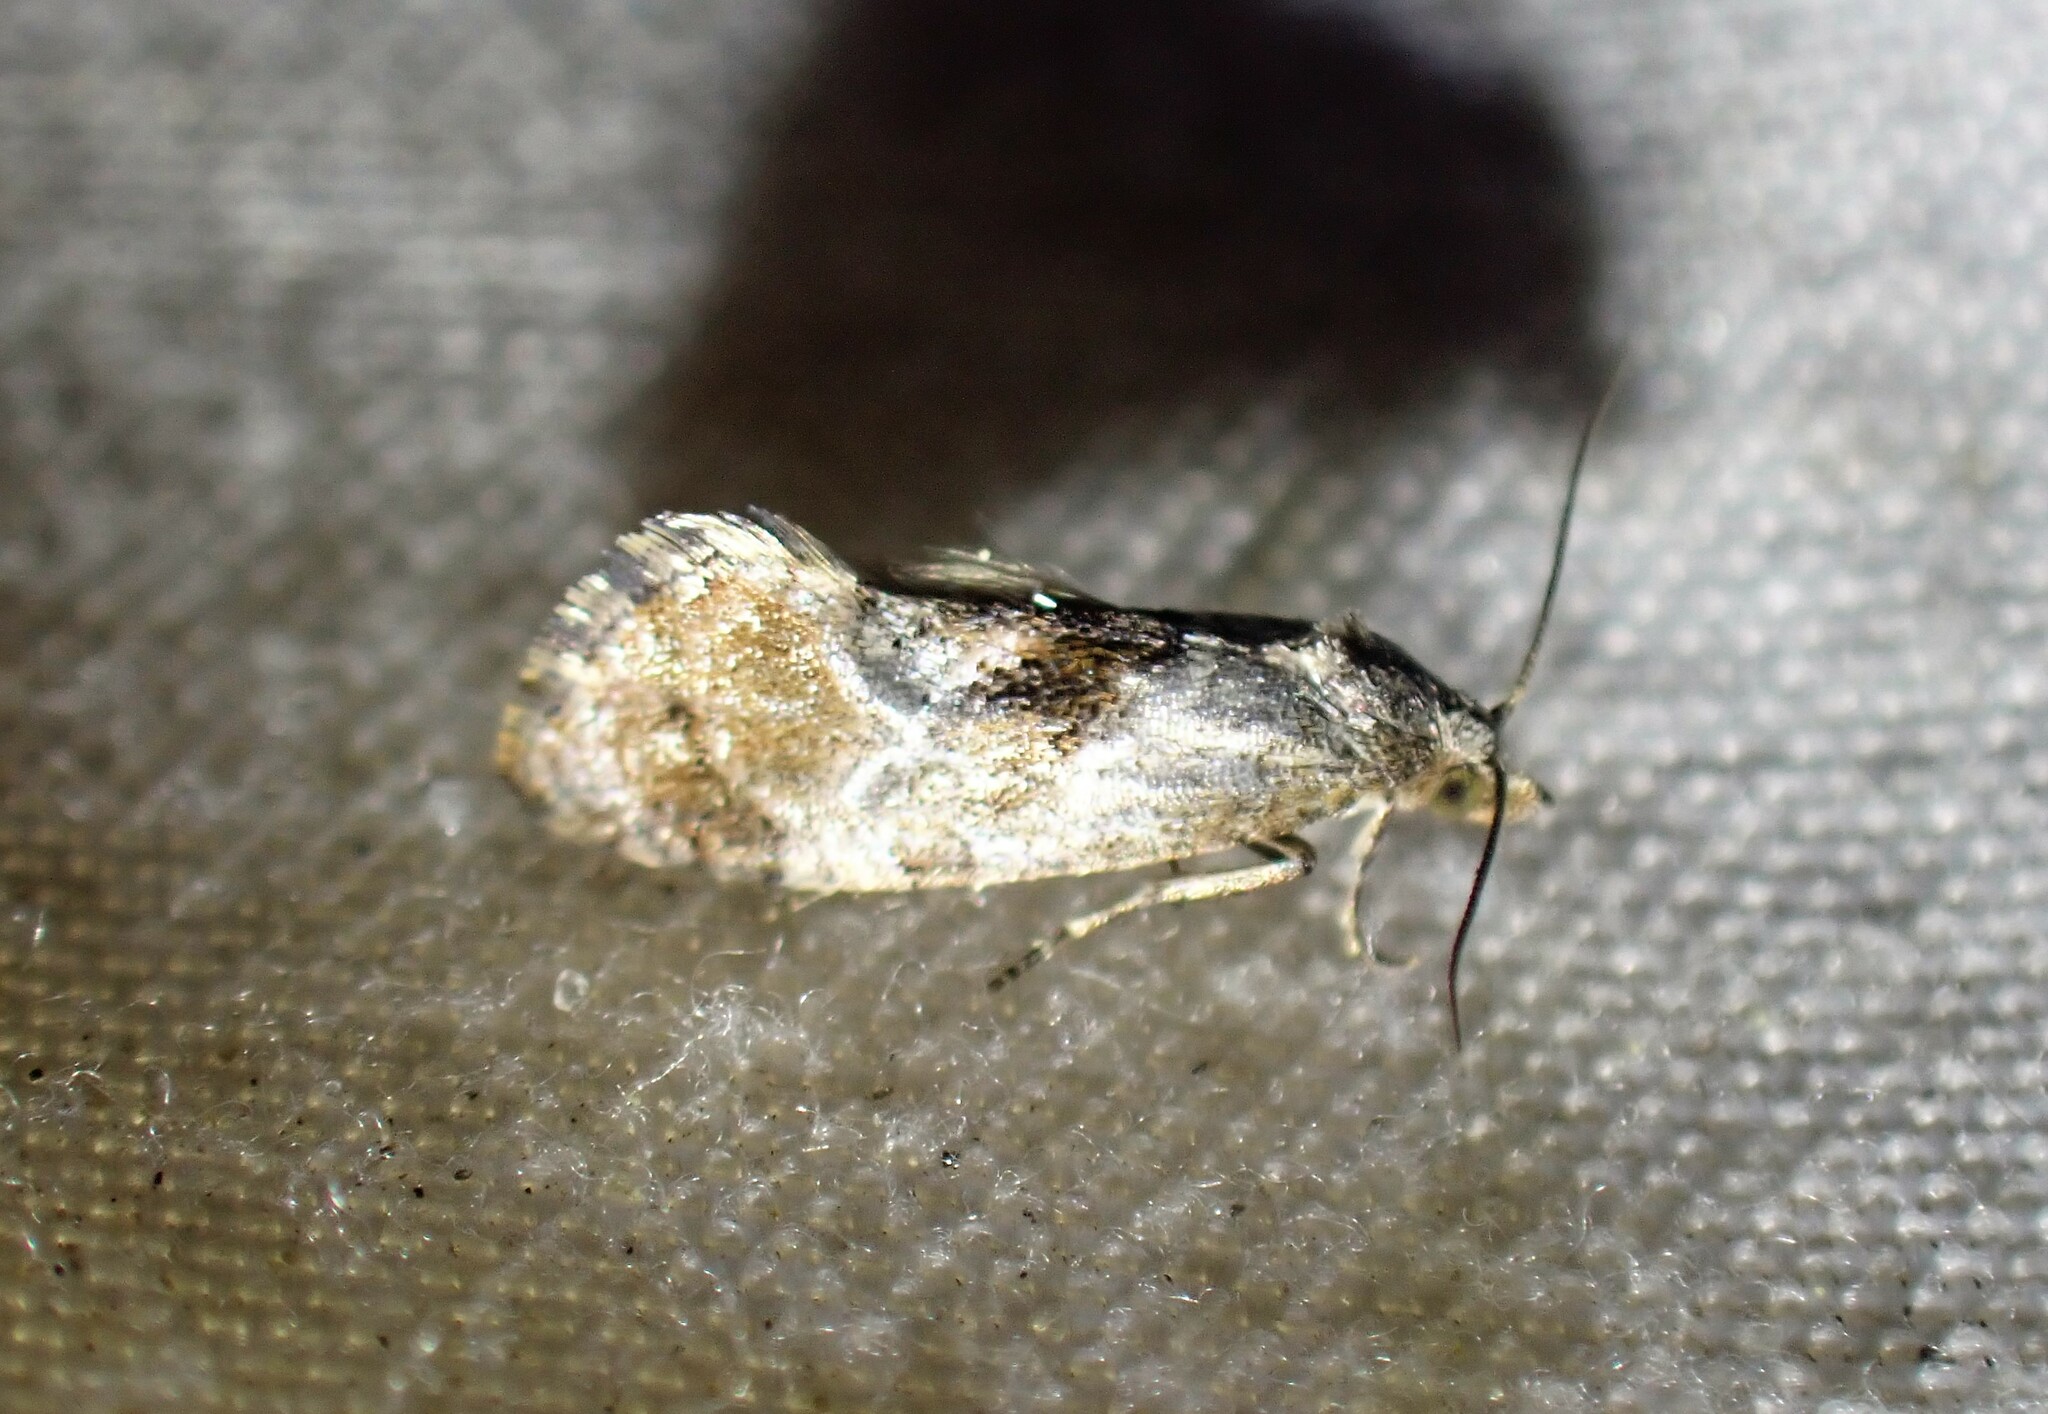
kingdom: Animalia
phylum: Arthropoda
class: Insecta
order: Lepidoptera
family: Tortricidae
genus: Cochylis
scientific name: Cochylis Cochylichroa temerana
